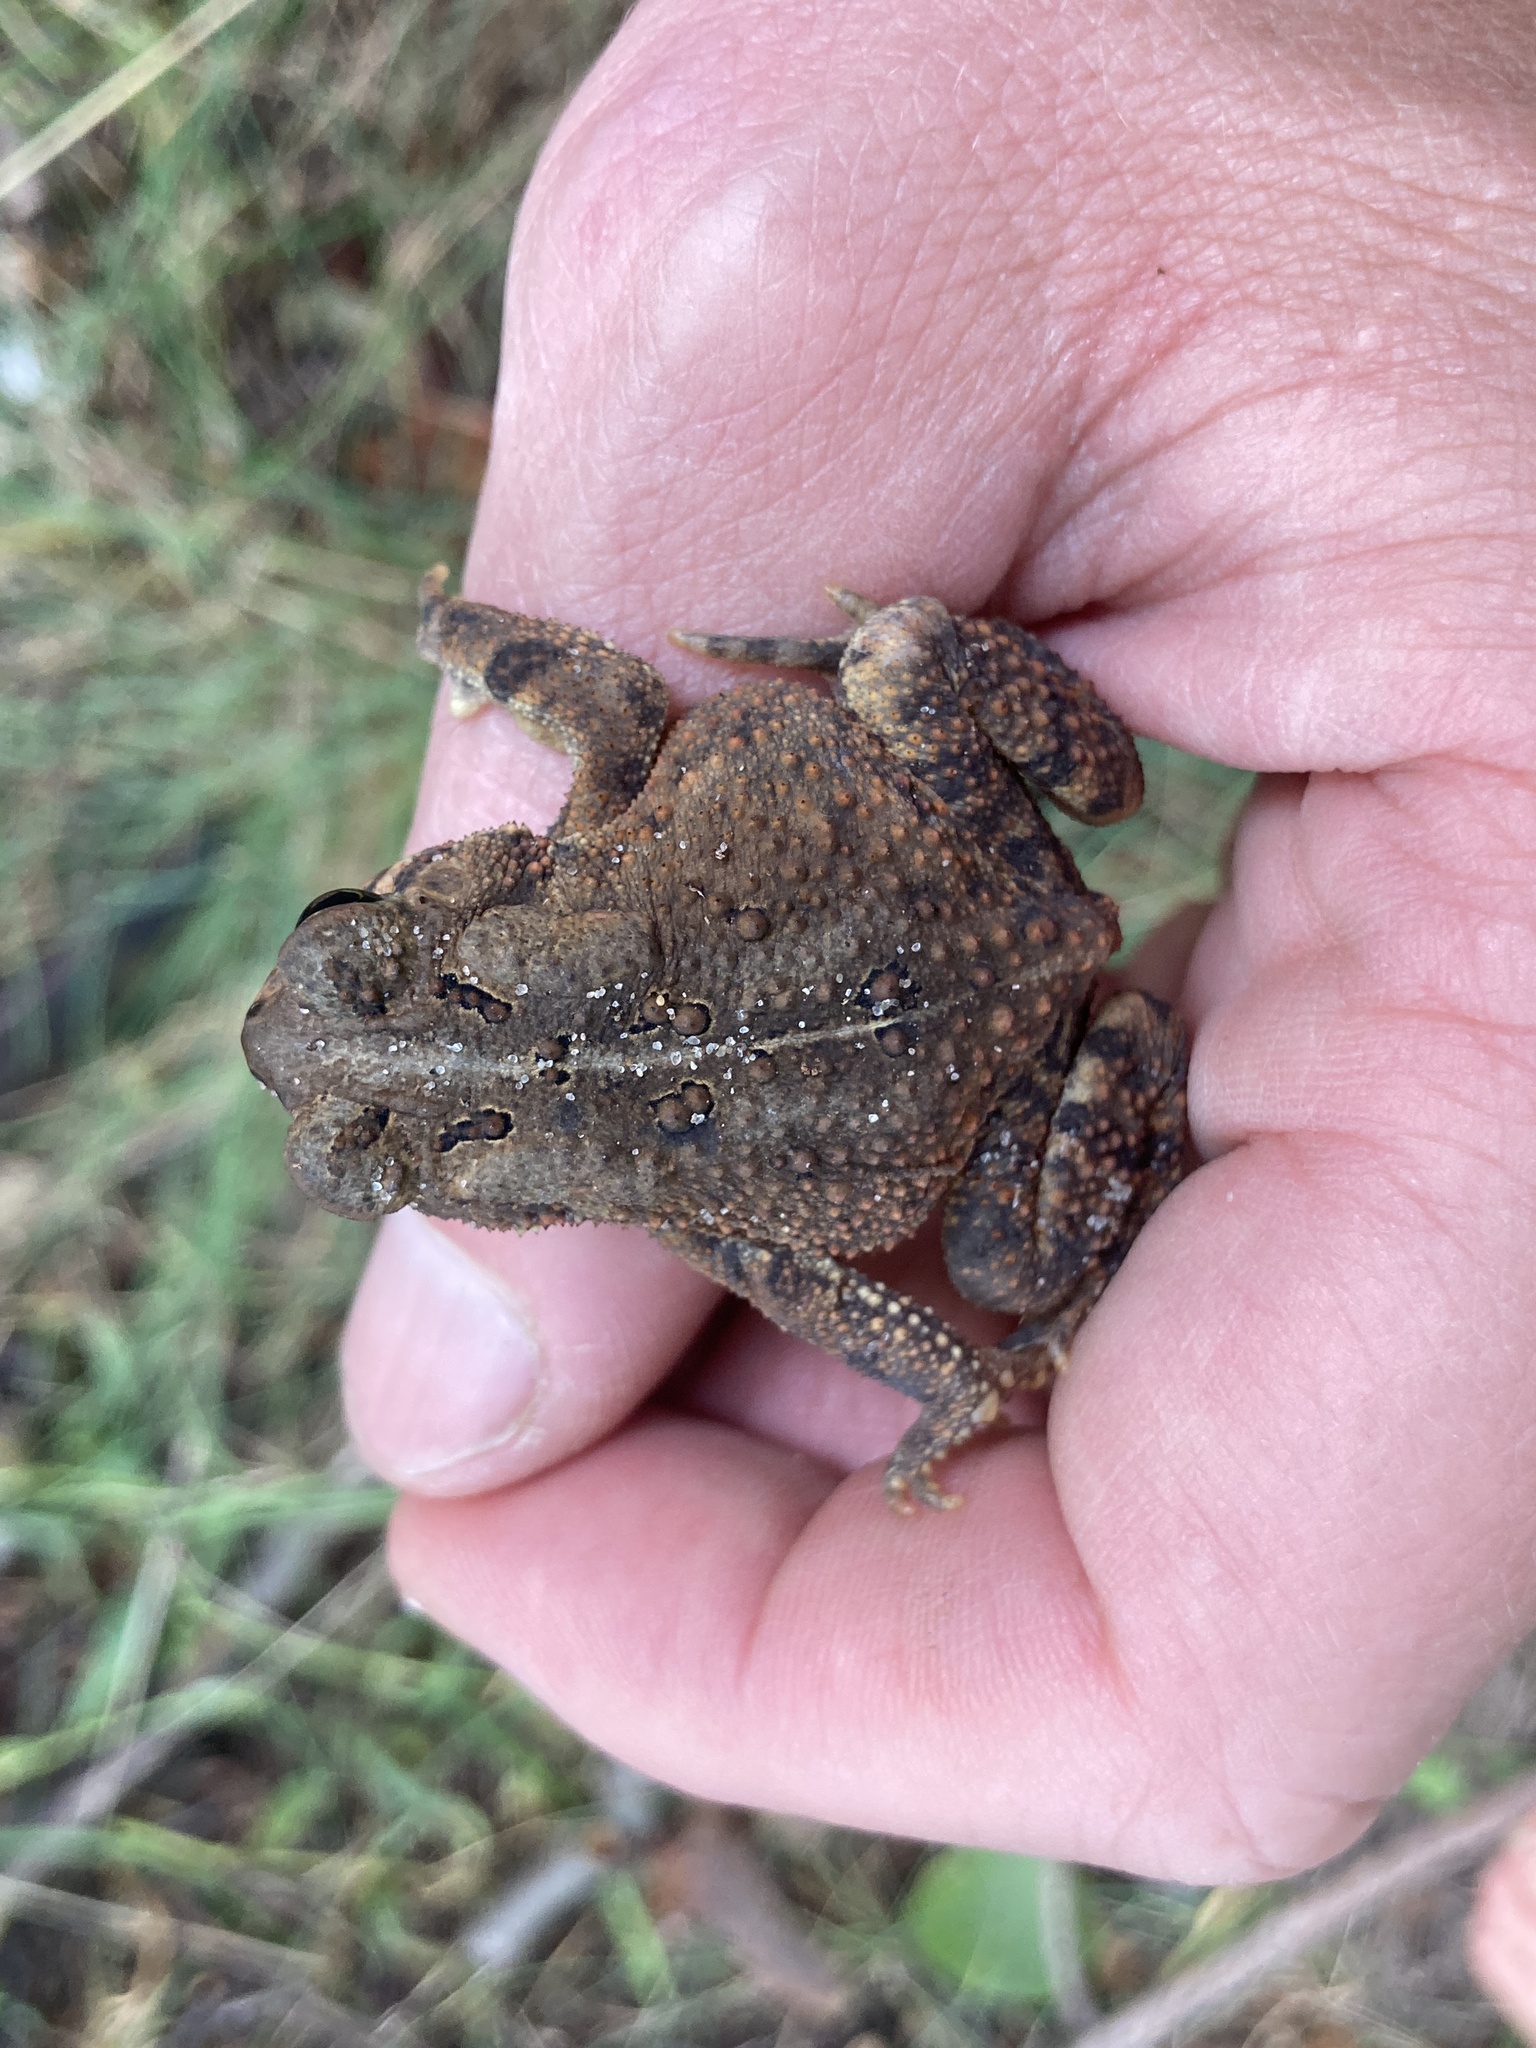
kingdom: Animalia
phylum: Chordata
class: Amphibia
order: Anura
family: Bufonidae
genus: Anaxyrus
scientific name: Anaxyrus americanus
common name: American toad
